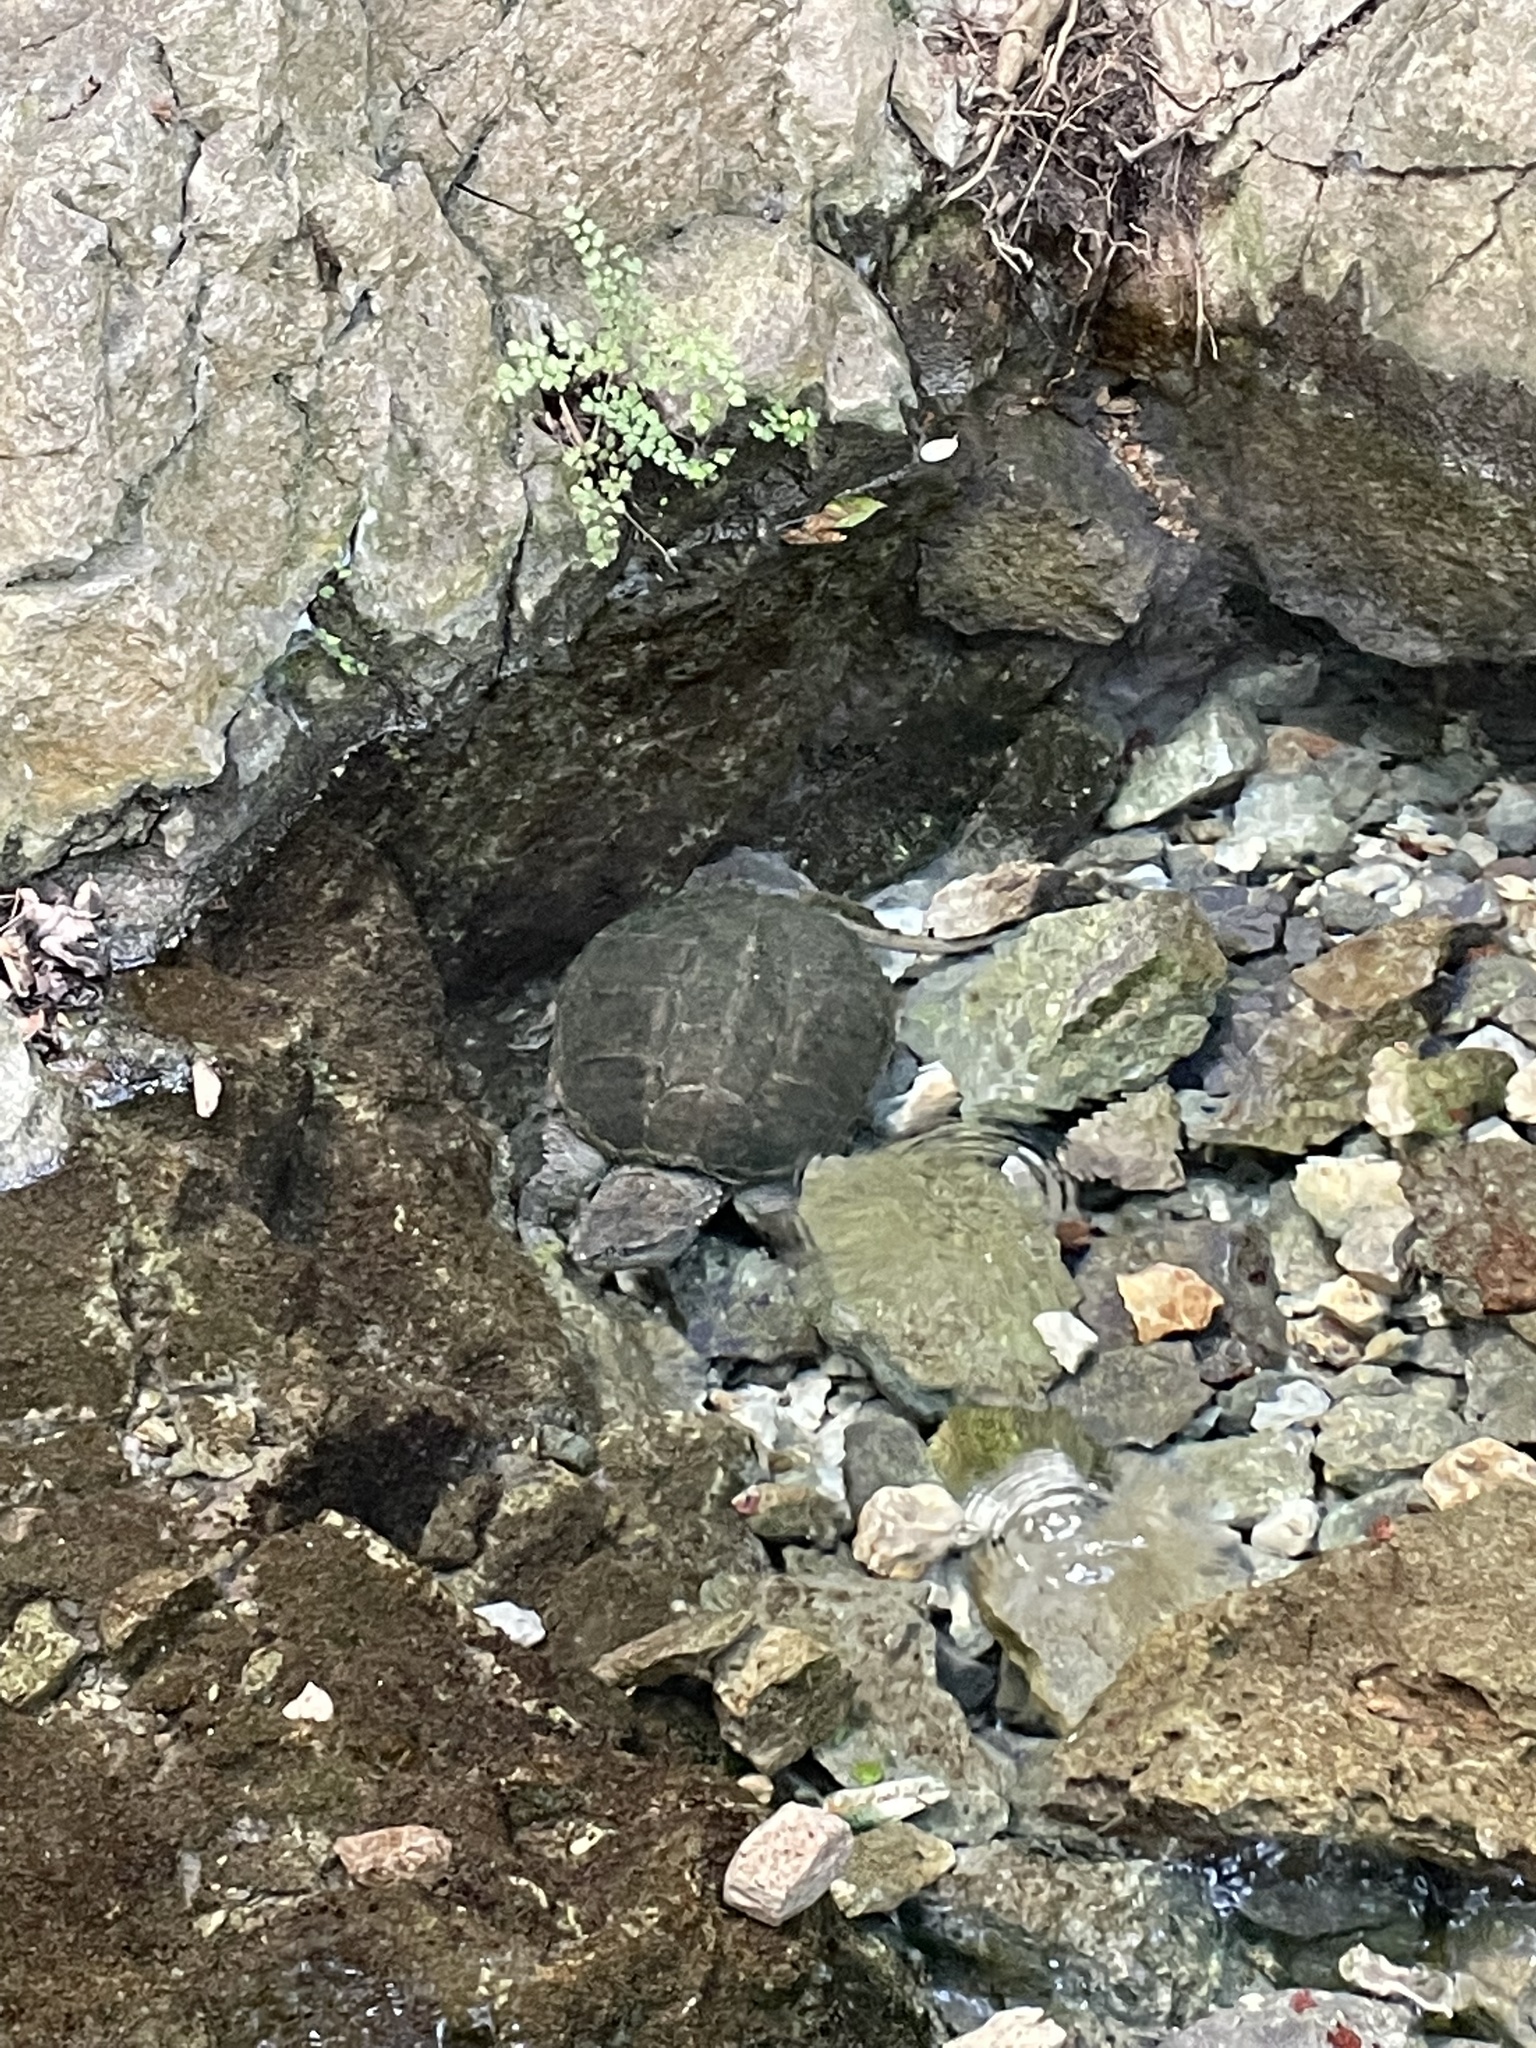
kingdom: Animalia
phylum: Chordata
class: Testudines
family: Chelydridae
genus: Chelydra
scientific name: Chelydra serpentina
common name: Common snapping turtle
